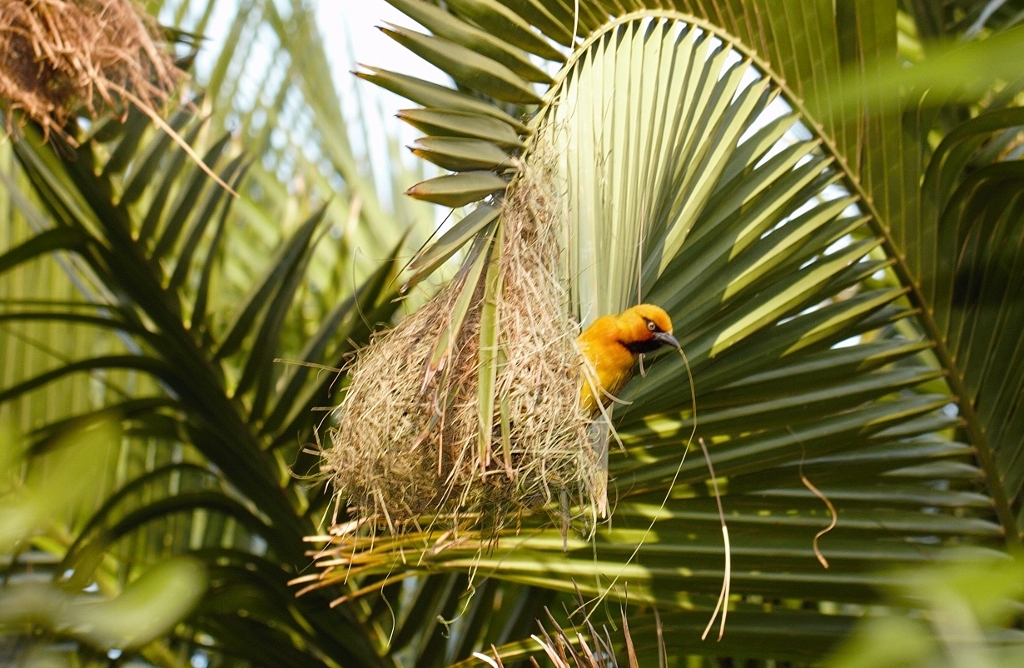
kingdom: Animalia
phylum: Chordata
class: Aves
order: Passeriformes
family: Ploceidae
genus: Ploceus
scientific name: Ploceus ocularis
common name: Spectacled weaver
